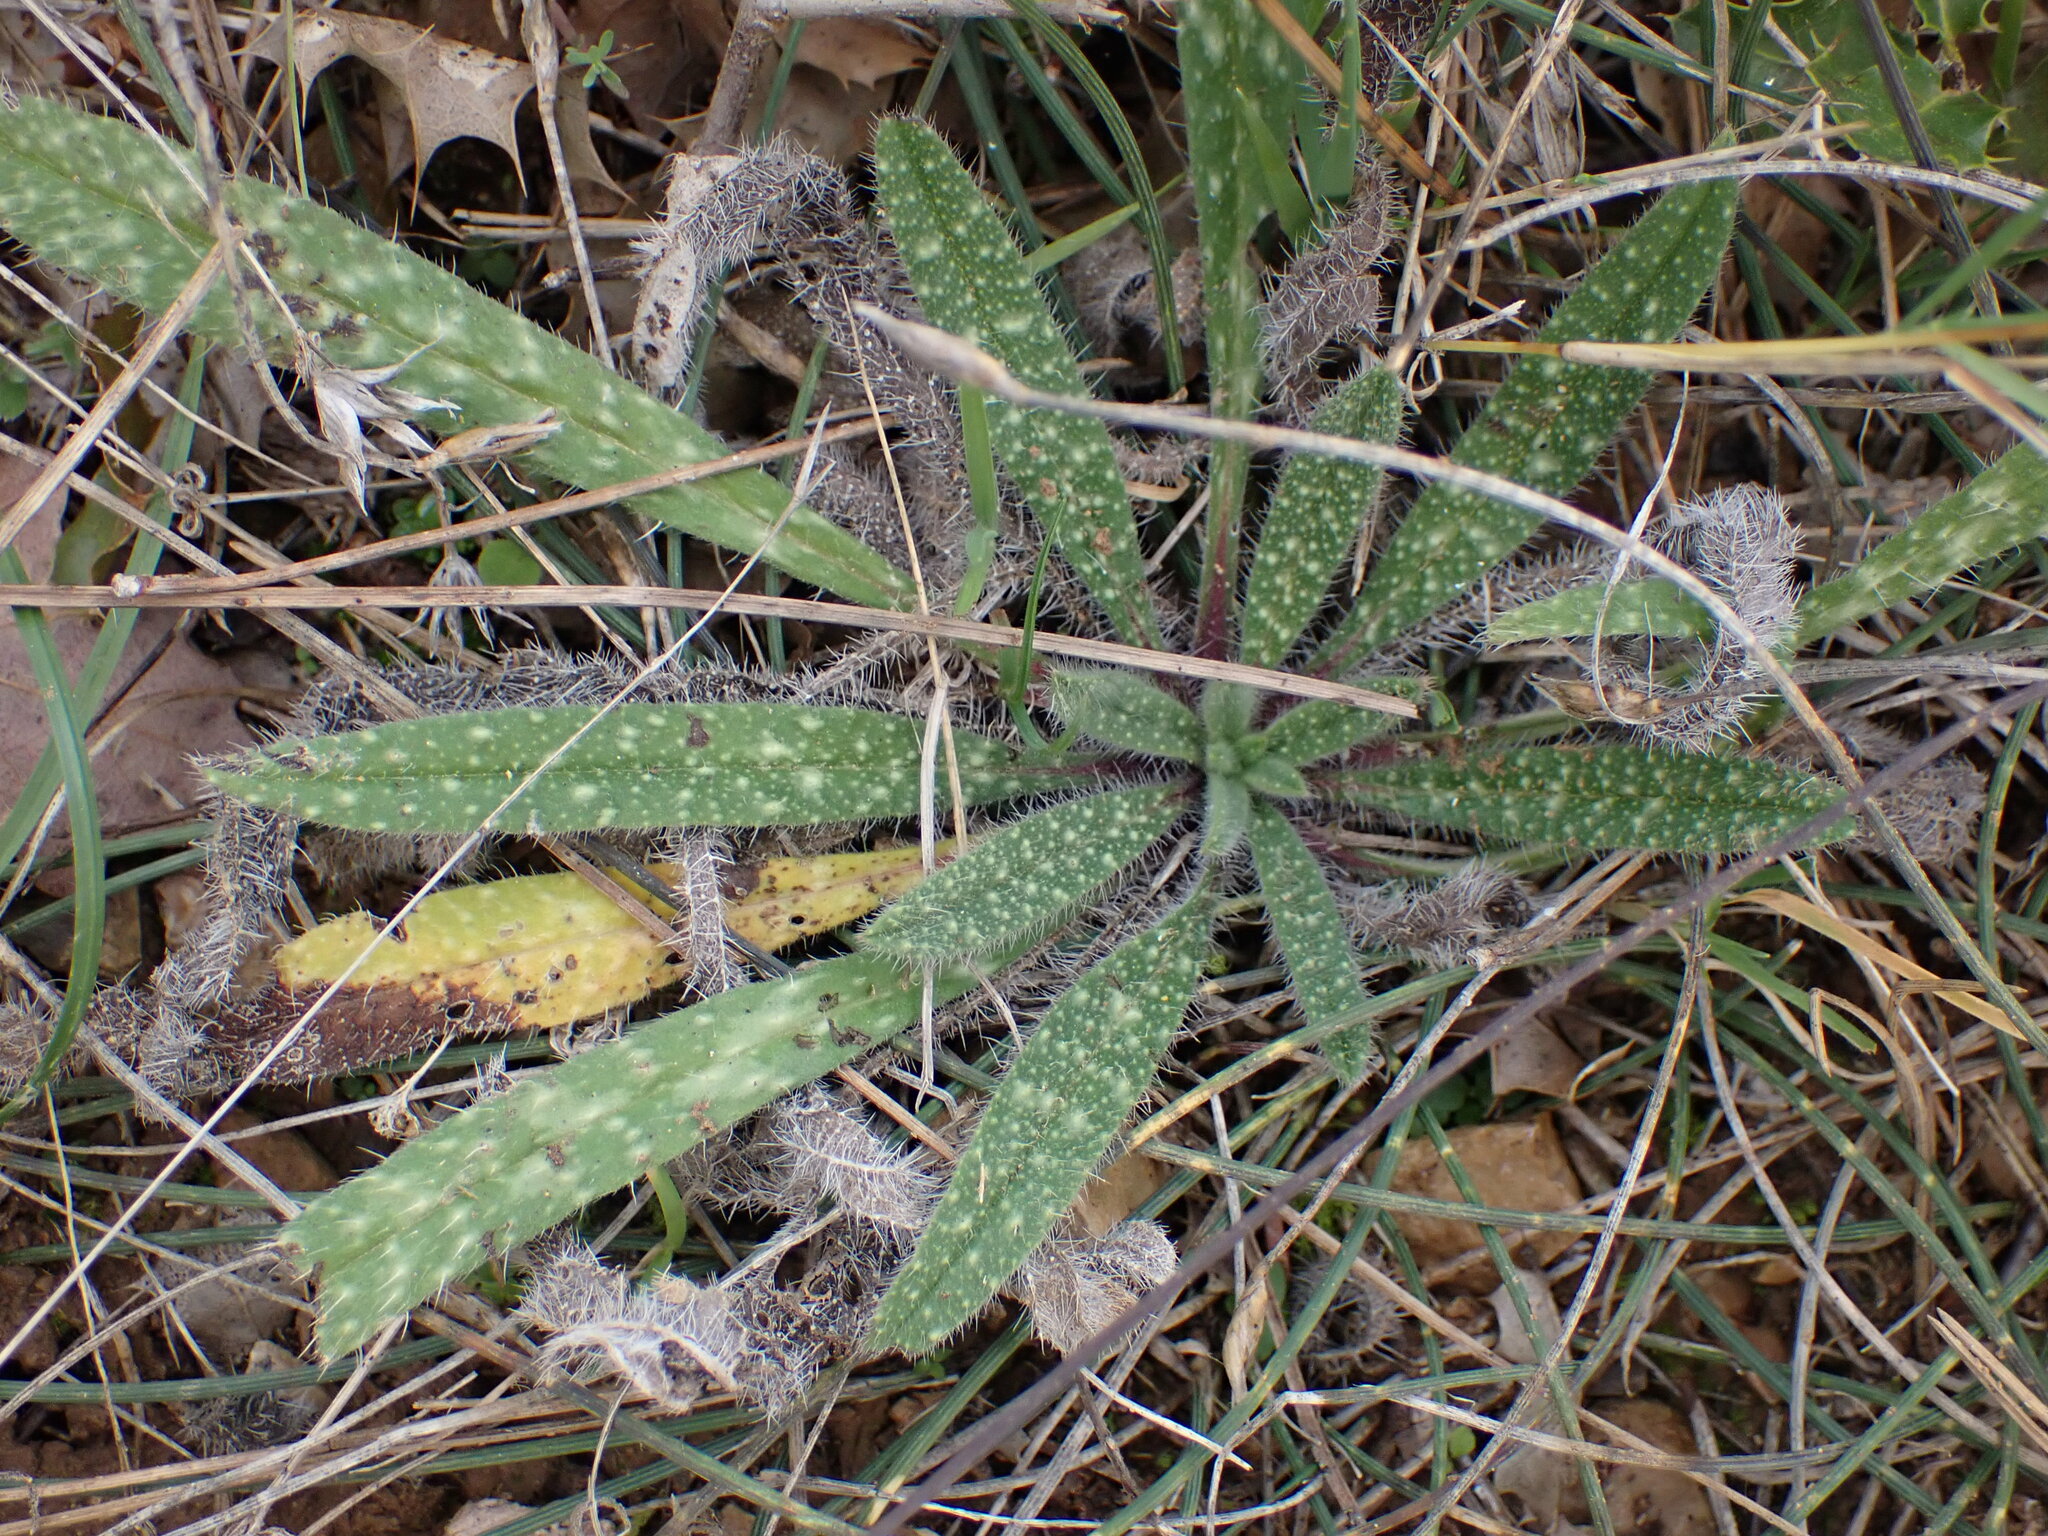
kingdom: Plantae
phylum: Tracheophyta
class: Magnoliopsida
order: Boraginales
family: Boraginaceae
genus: Echium
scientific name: Echium vulgare
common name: Common viper's bugloss
